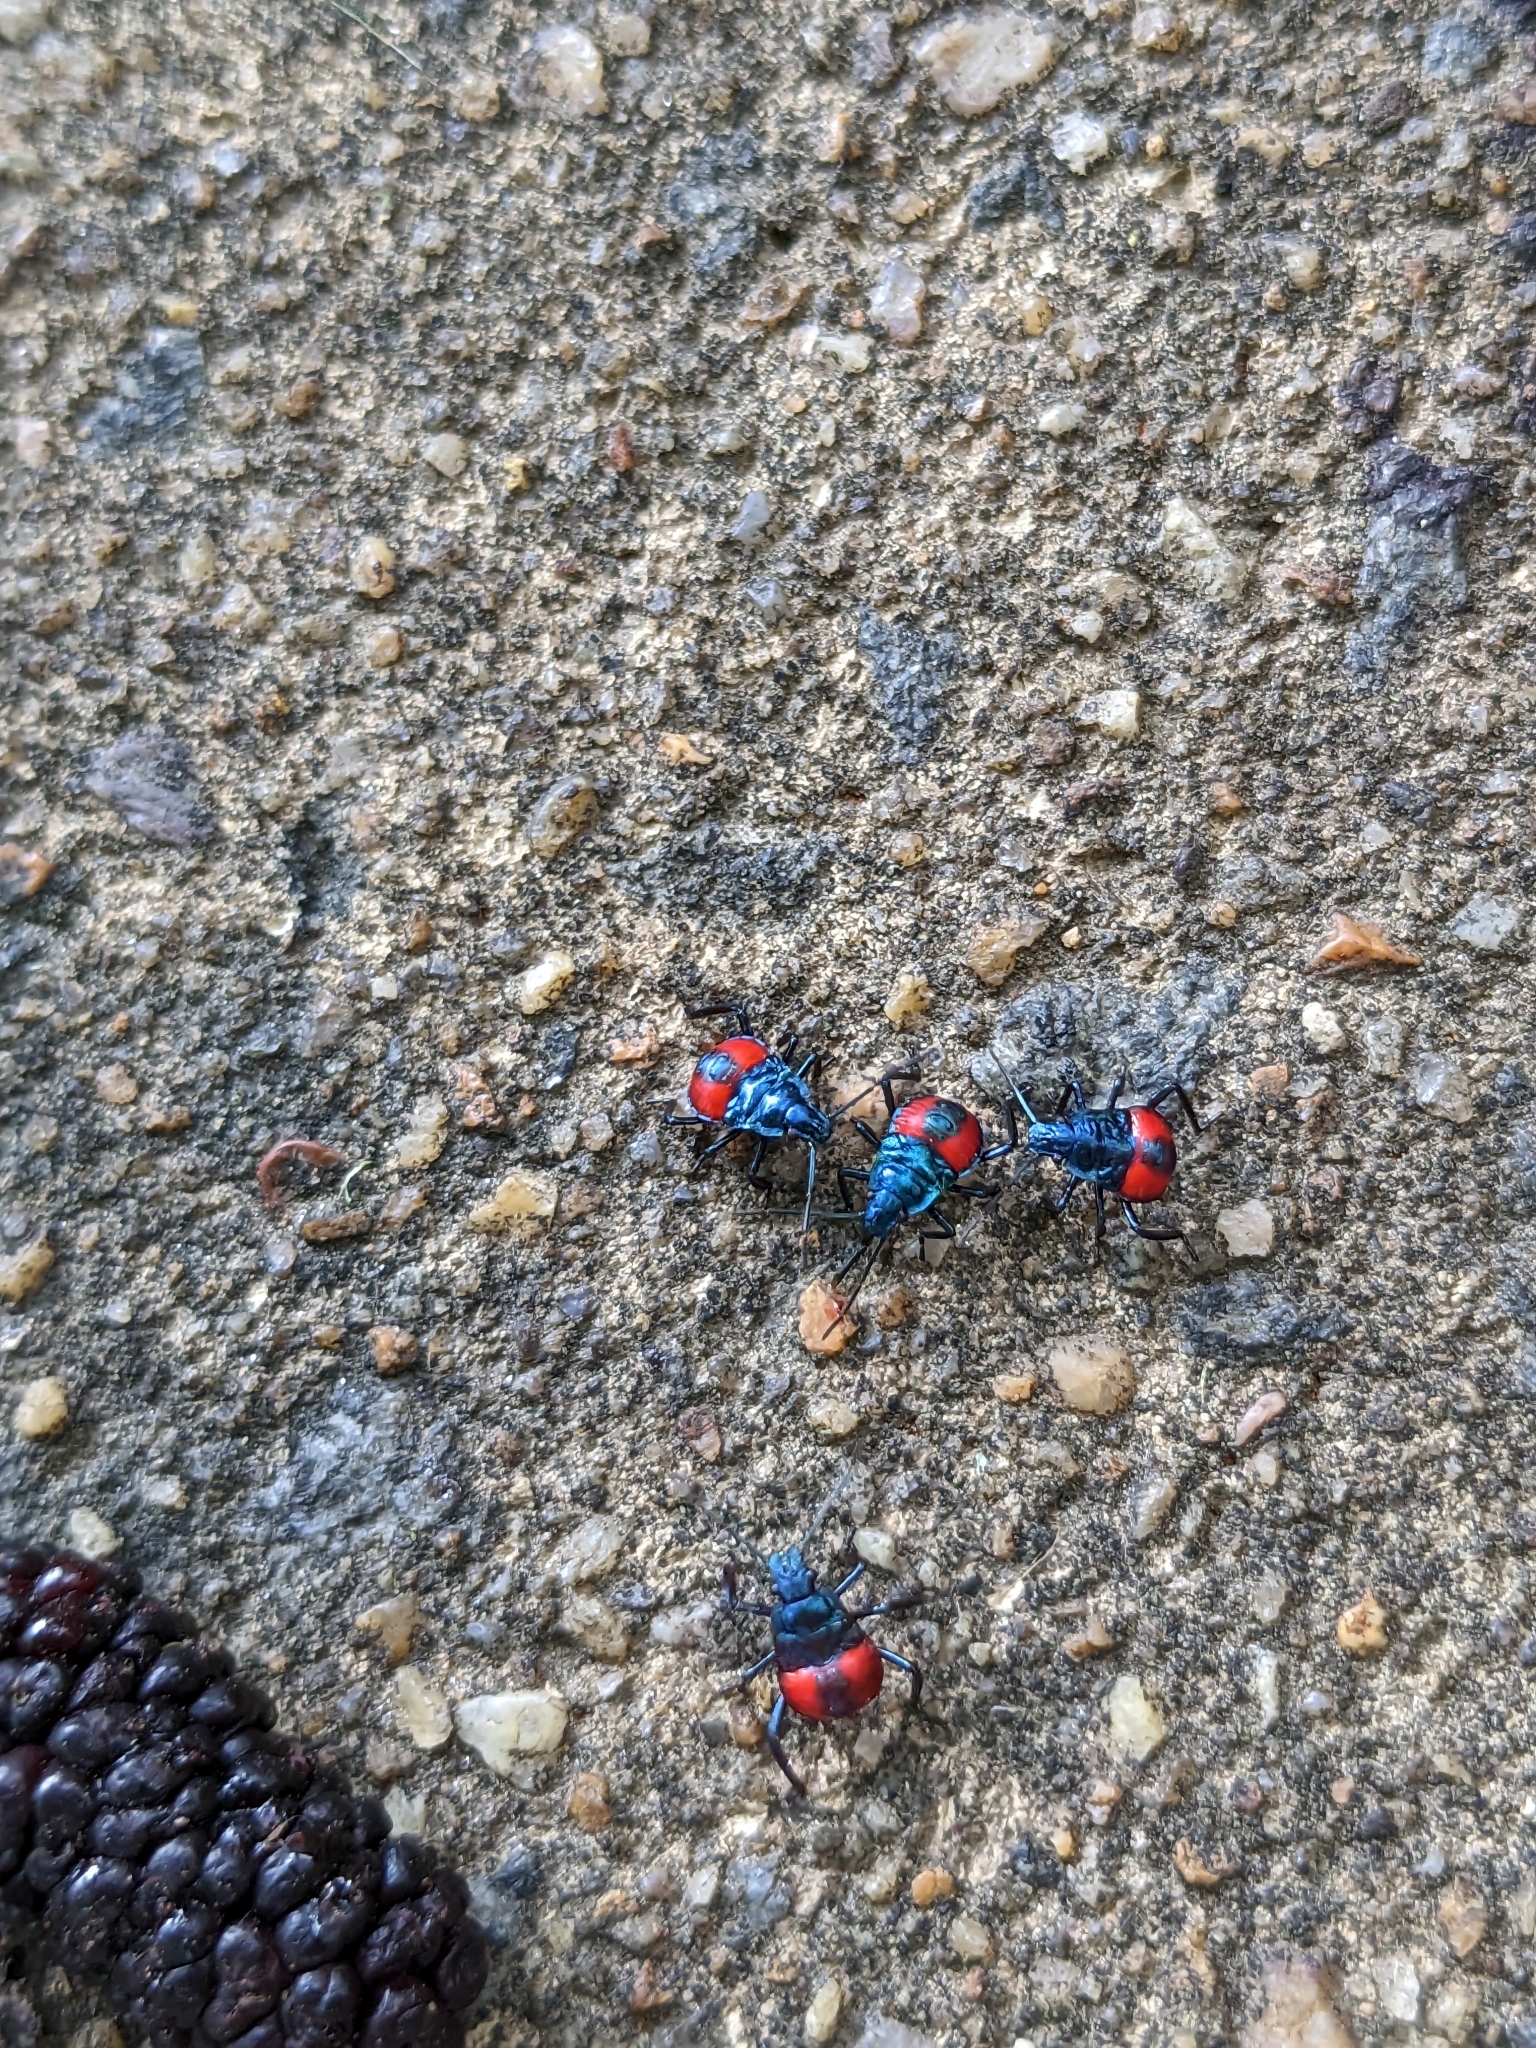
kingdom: Animalia
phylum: Arthropoda
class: Insecta
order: Hemiptera
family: Pentatomidae
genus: Euthyrhynchus
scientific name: Euthyrhynchus floridanus
